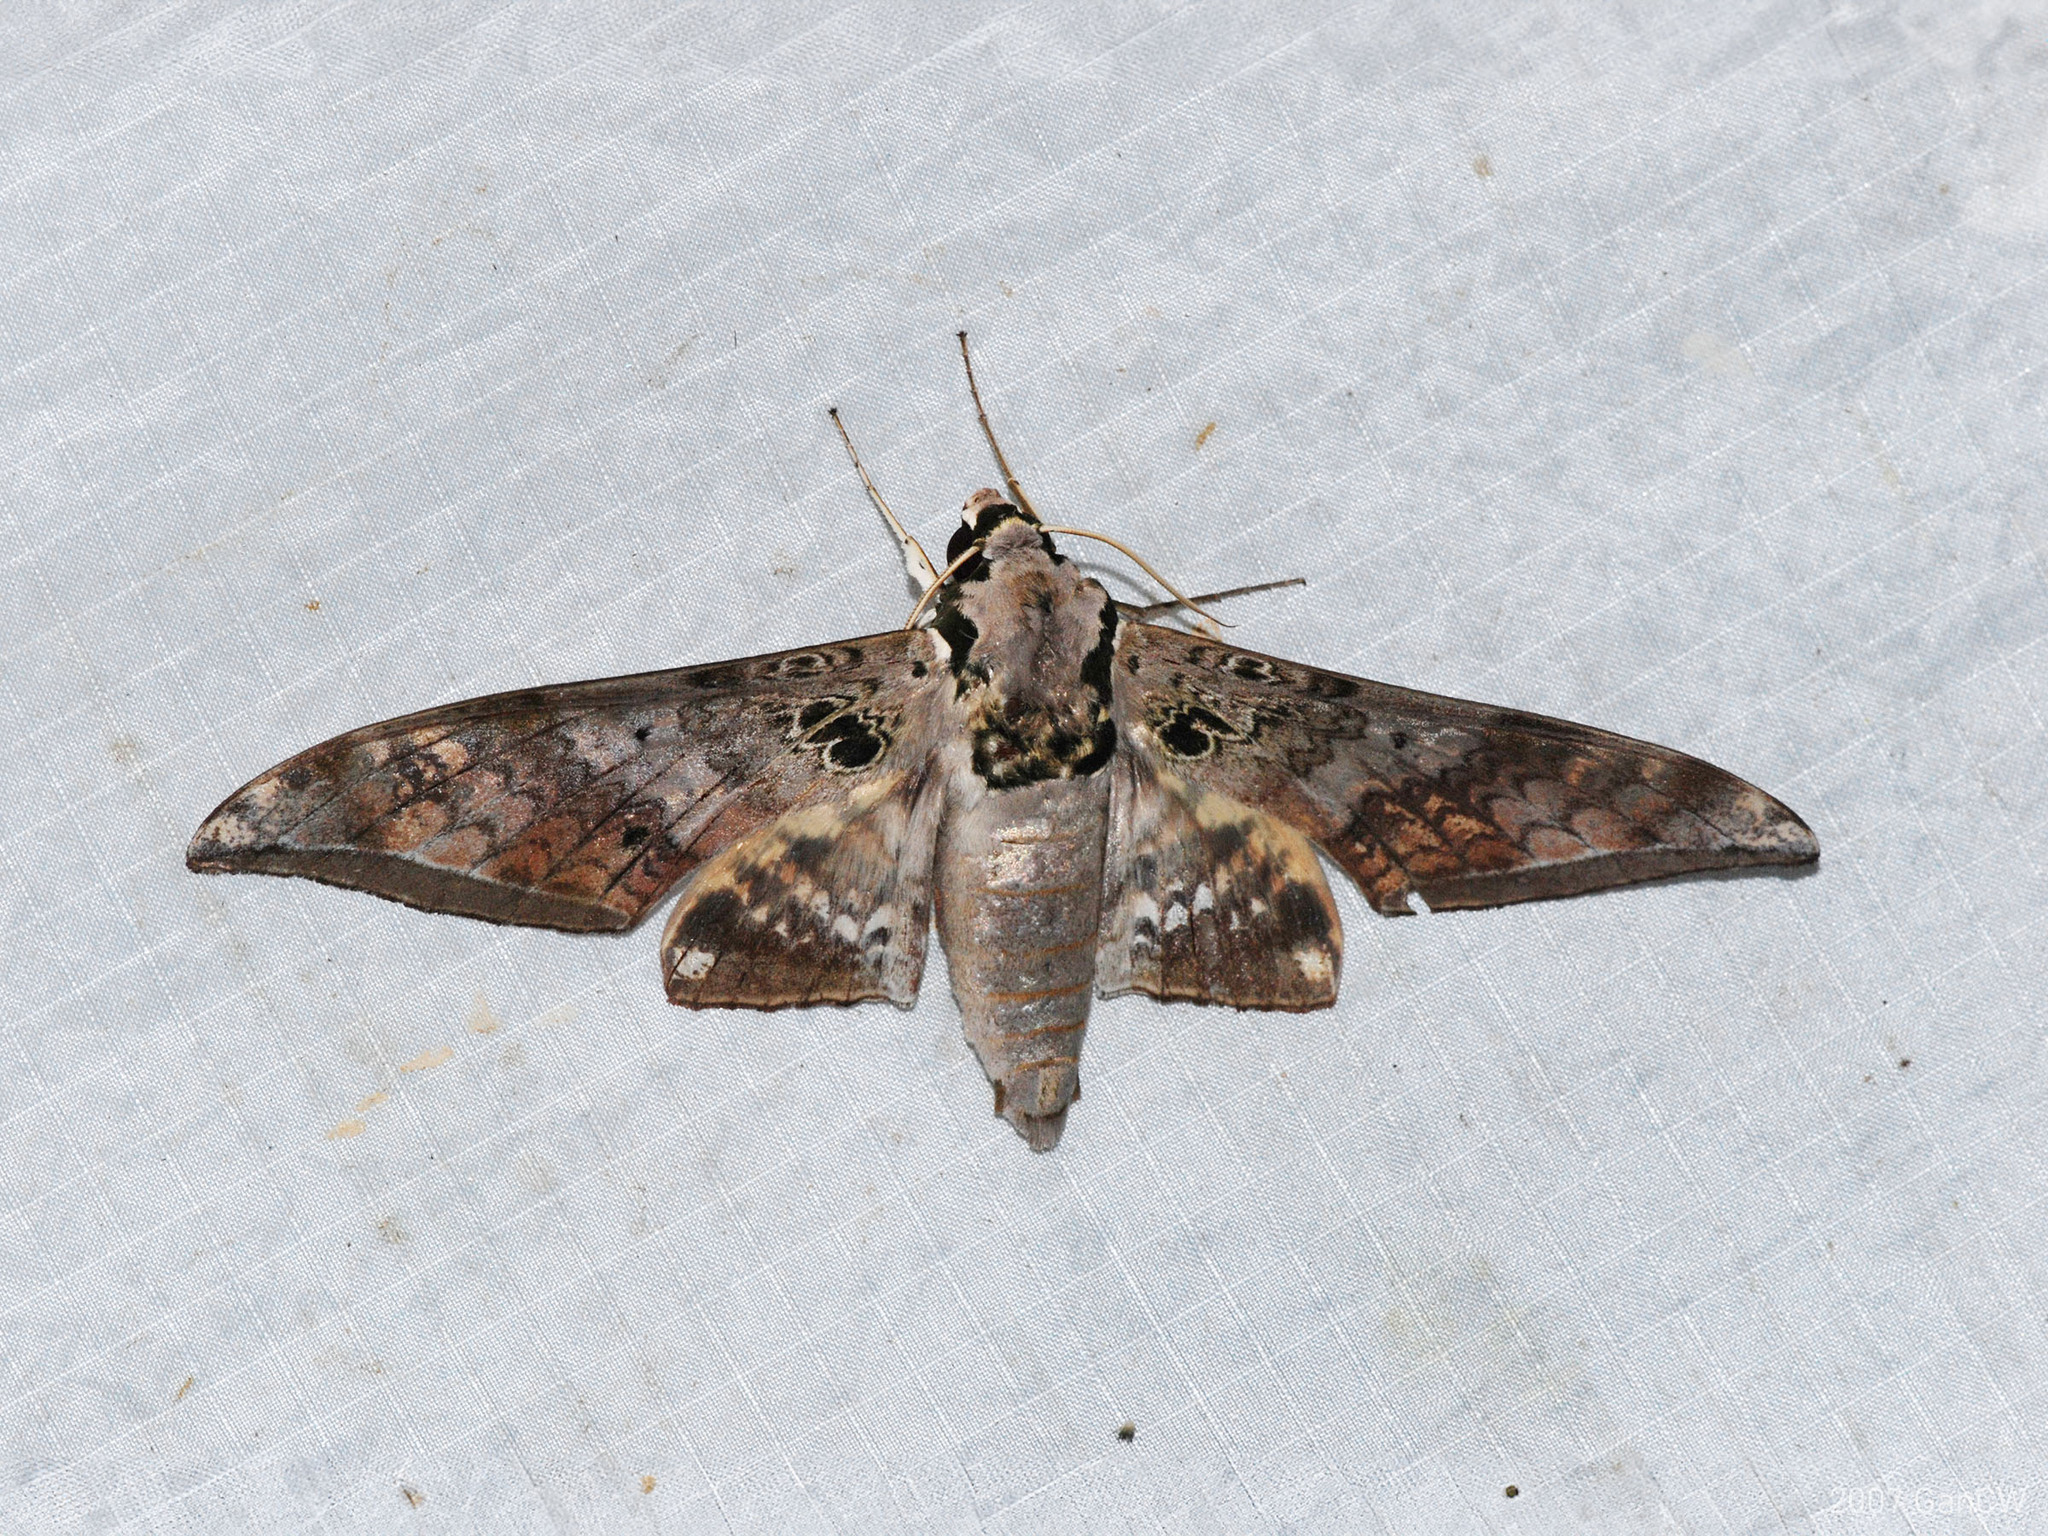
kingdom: Animalia
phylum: Arthropoda
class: Insecta
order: Lepidoptera
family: Sphingidae
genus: Ambulyx
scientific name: Ambulyx canescens
